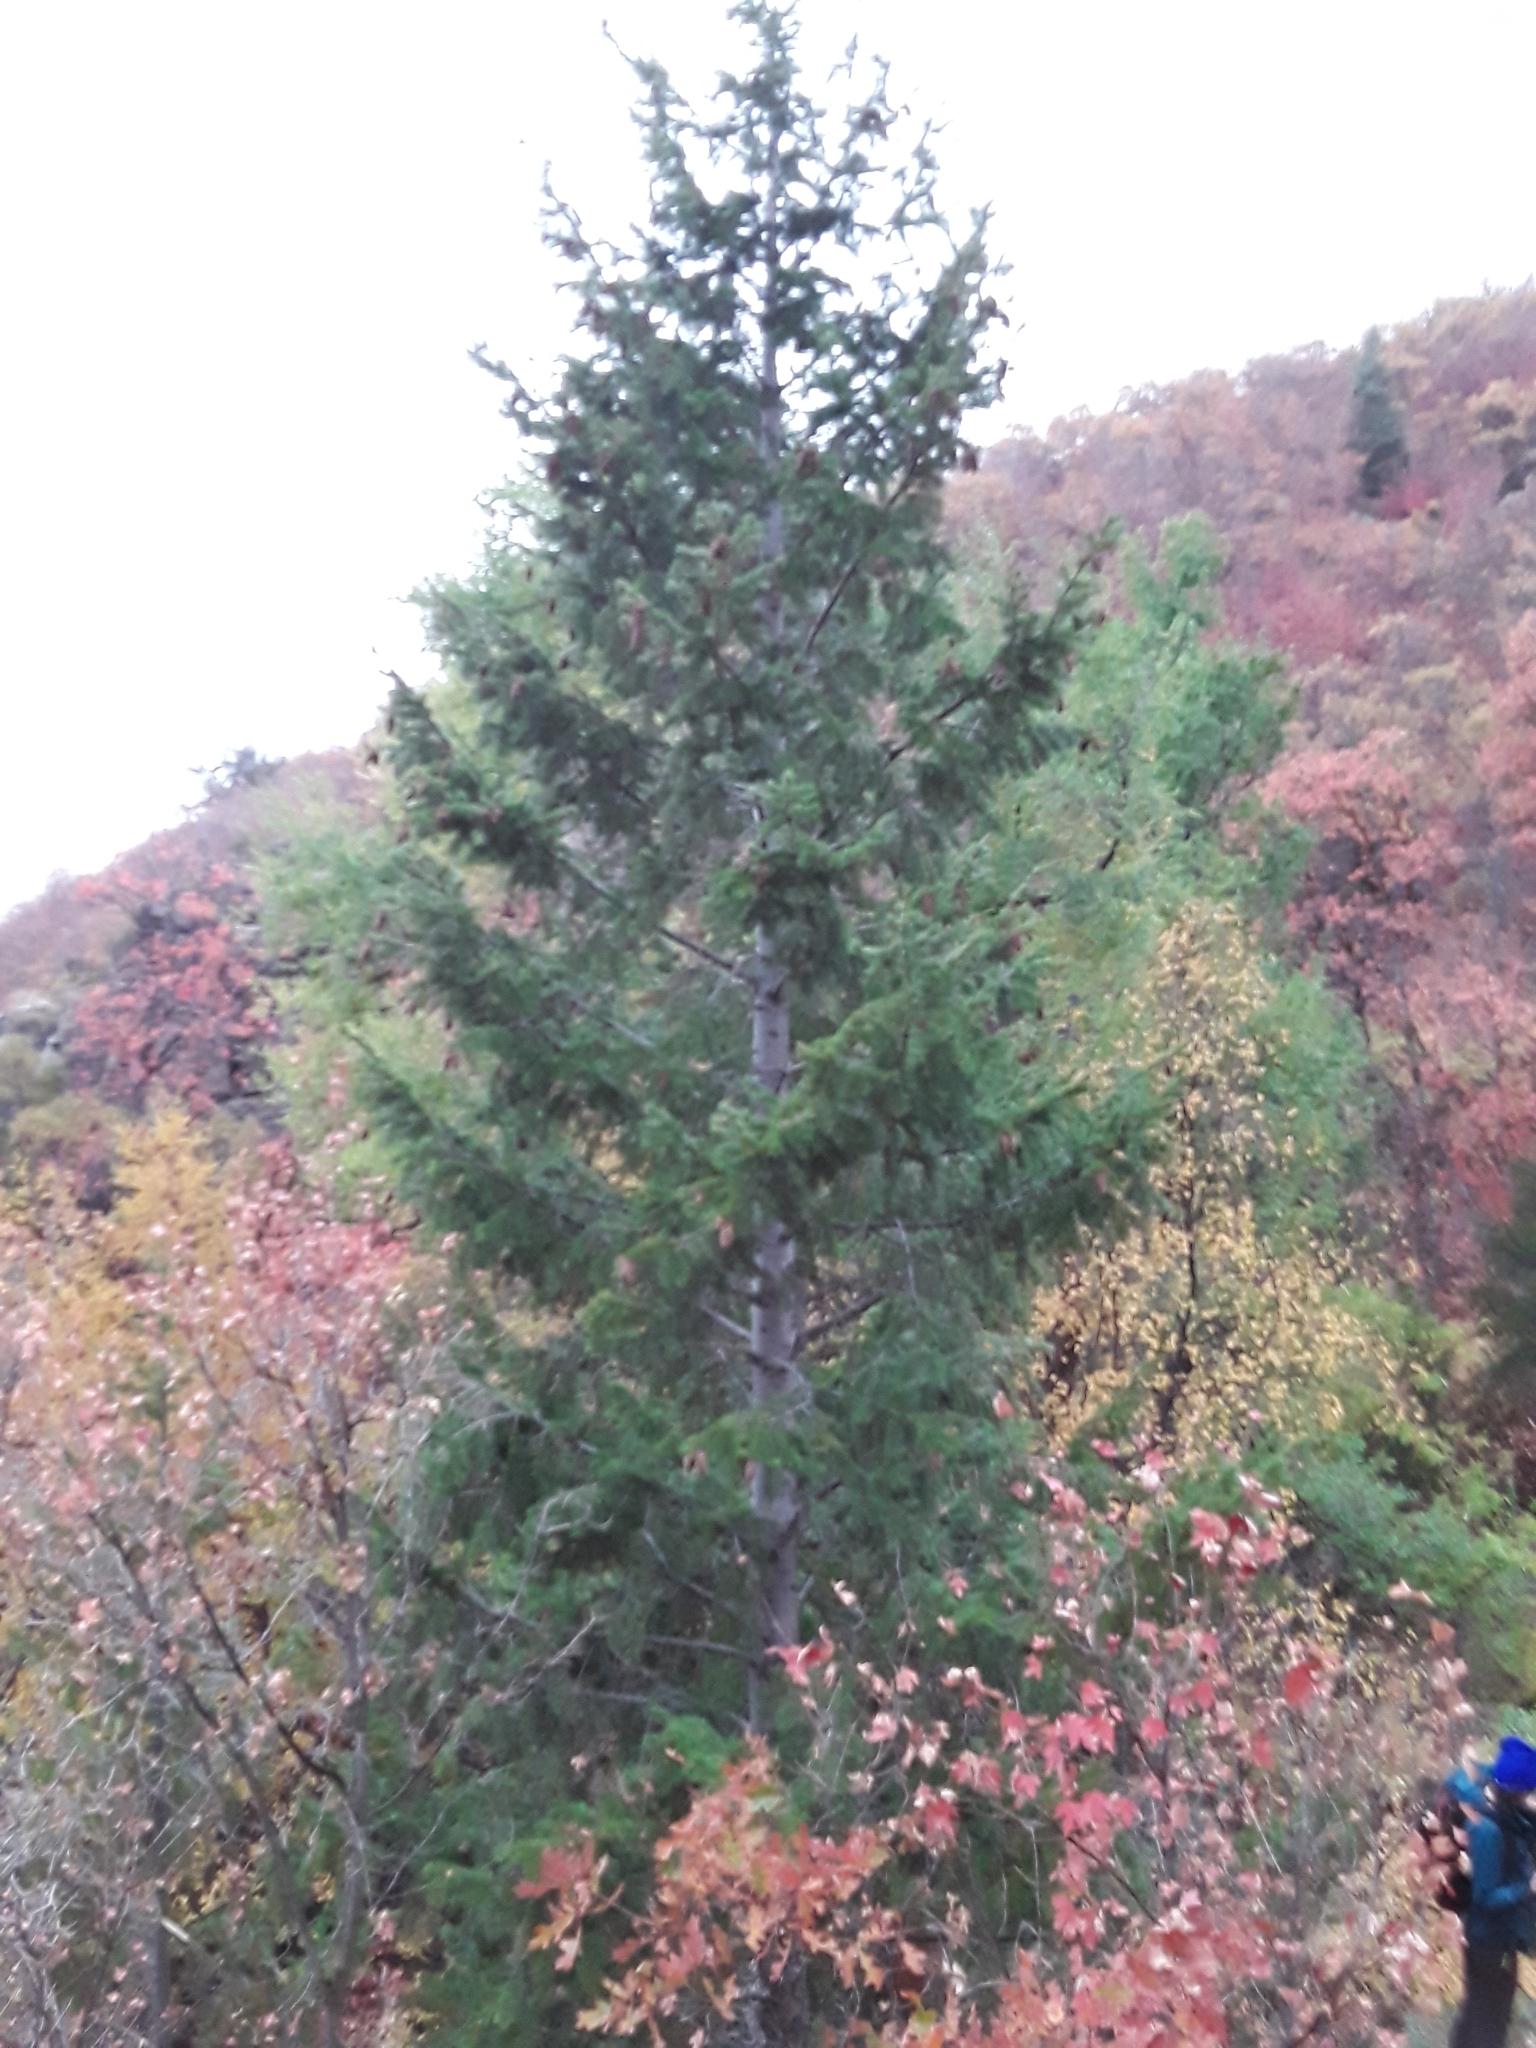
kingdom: Plantae
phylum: Tracheophyta
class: Pinopsida
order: Pinales
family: Pinaceae
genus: Pseudotsuga
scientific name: Pseudotsuga menziesii
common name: Douglas fir
